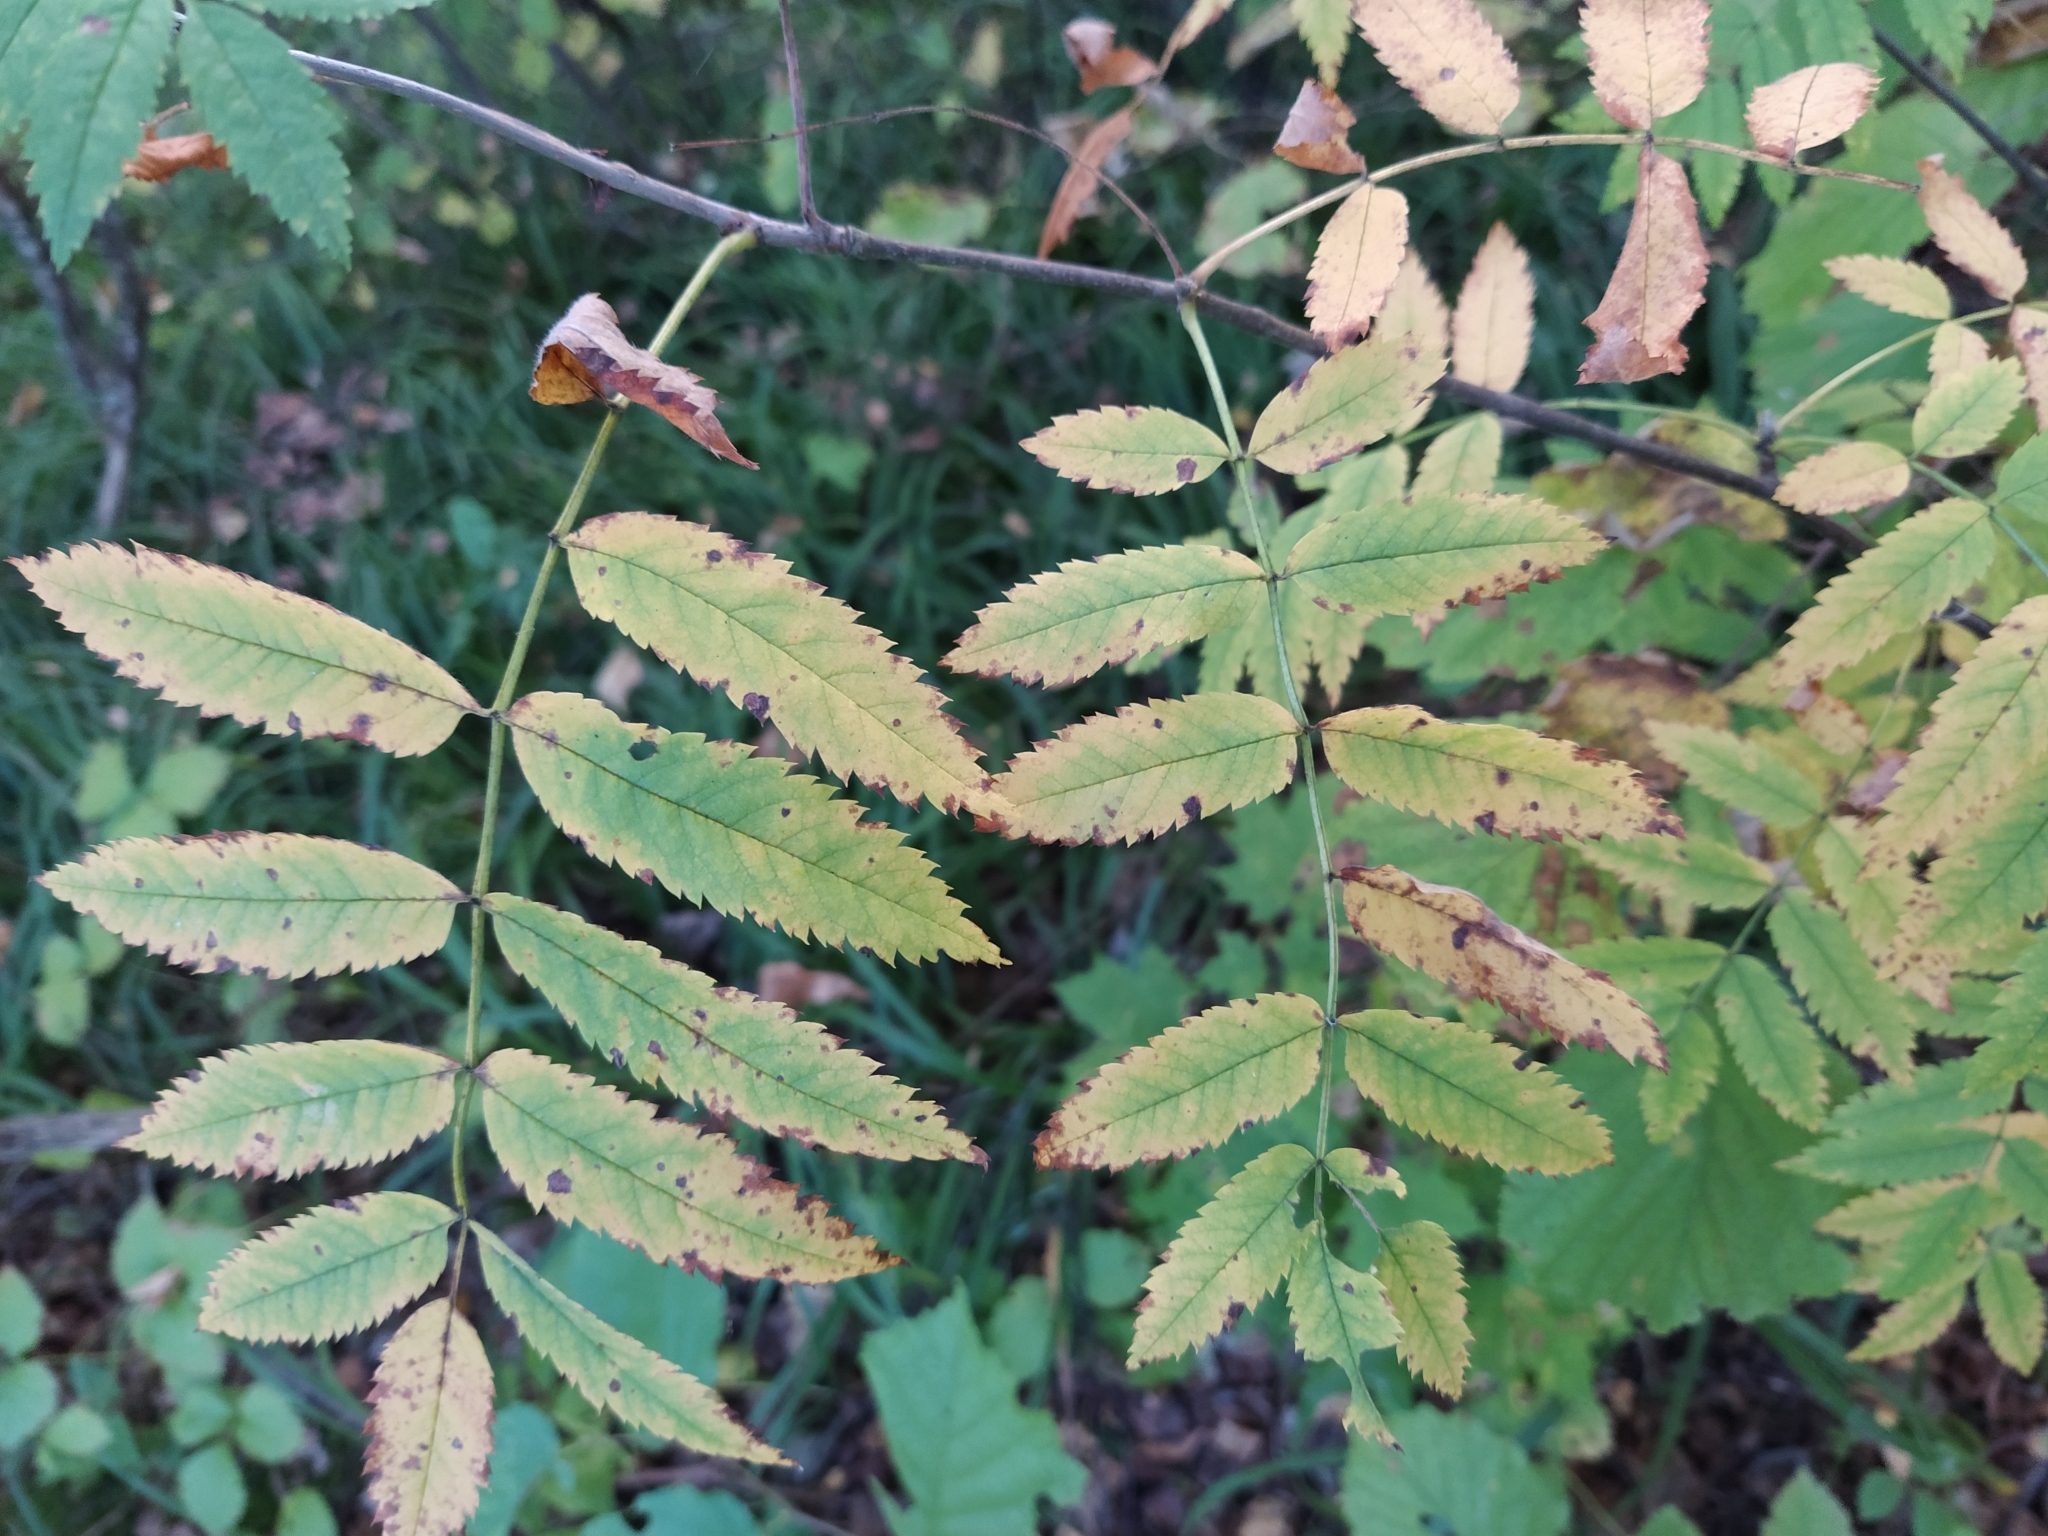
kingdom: Plantae
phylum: Tracheophyta
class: Magnoliopsida
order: Rosales
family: Rosaceae
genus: Sorbus
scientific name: Sorbus aucuparia
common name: Rowan
